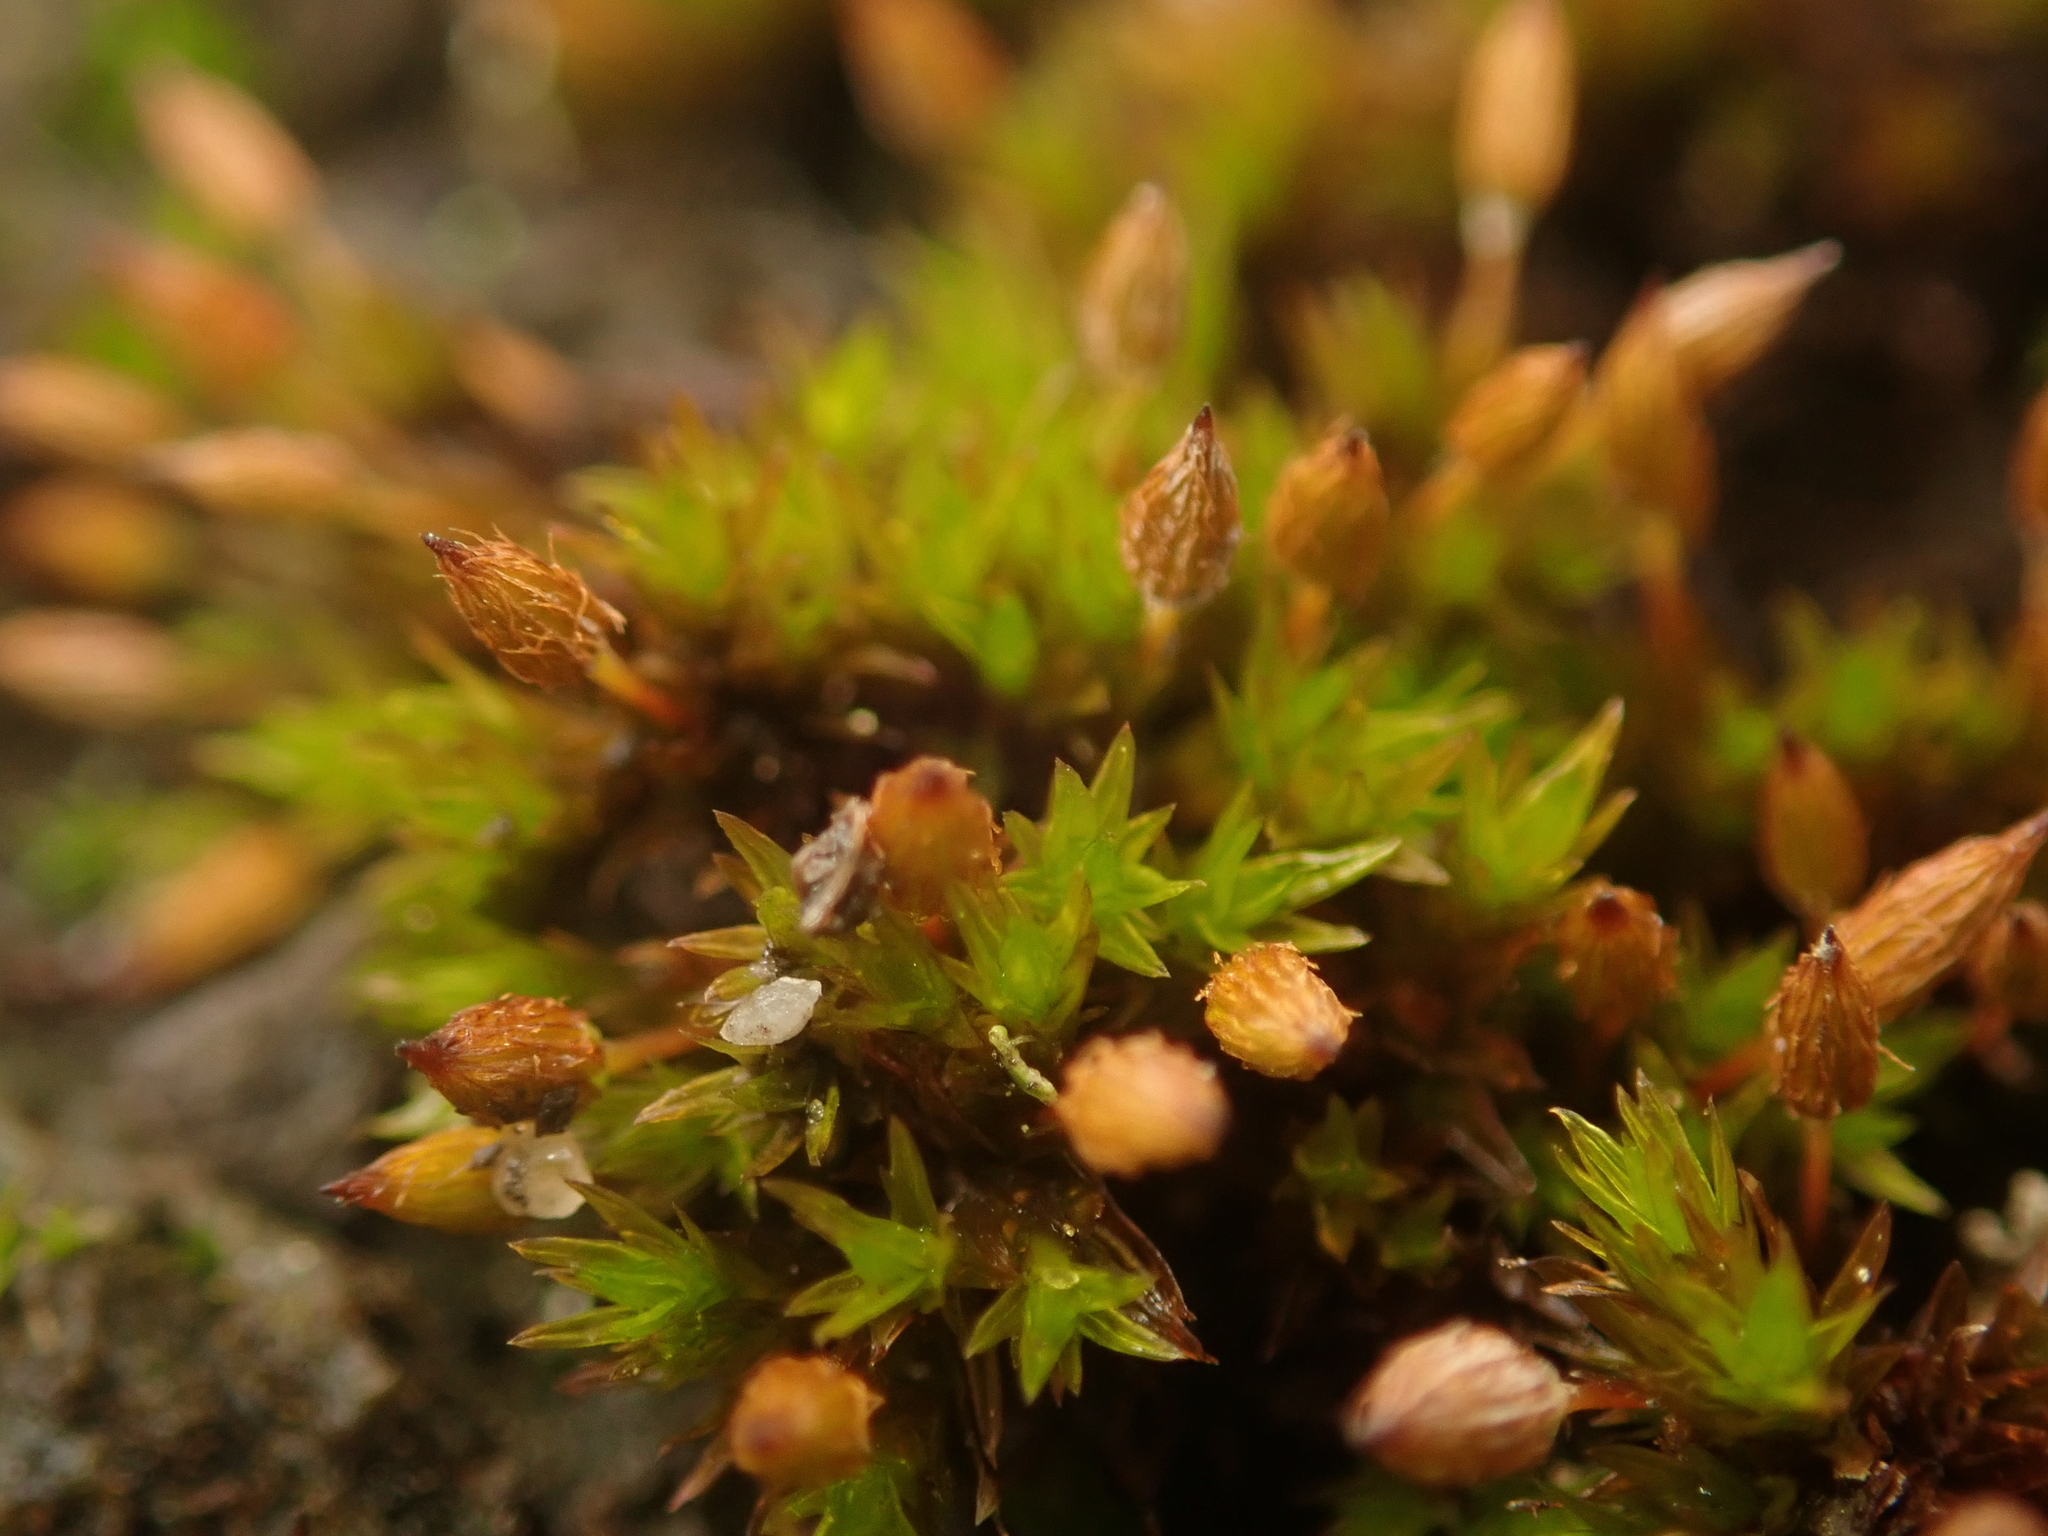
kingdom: Plantae
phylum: Bryophyta
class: Bryopsida
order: Orthotrichales
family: Orthotrichaceae
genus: Orthotrichum
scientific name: Orthotrichum anomalum
